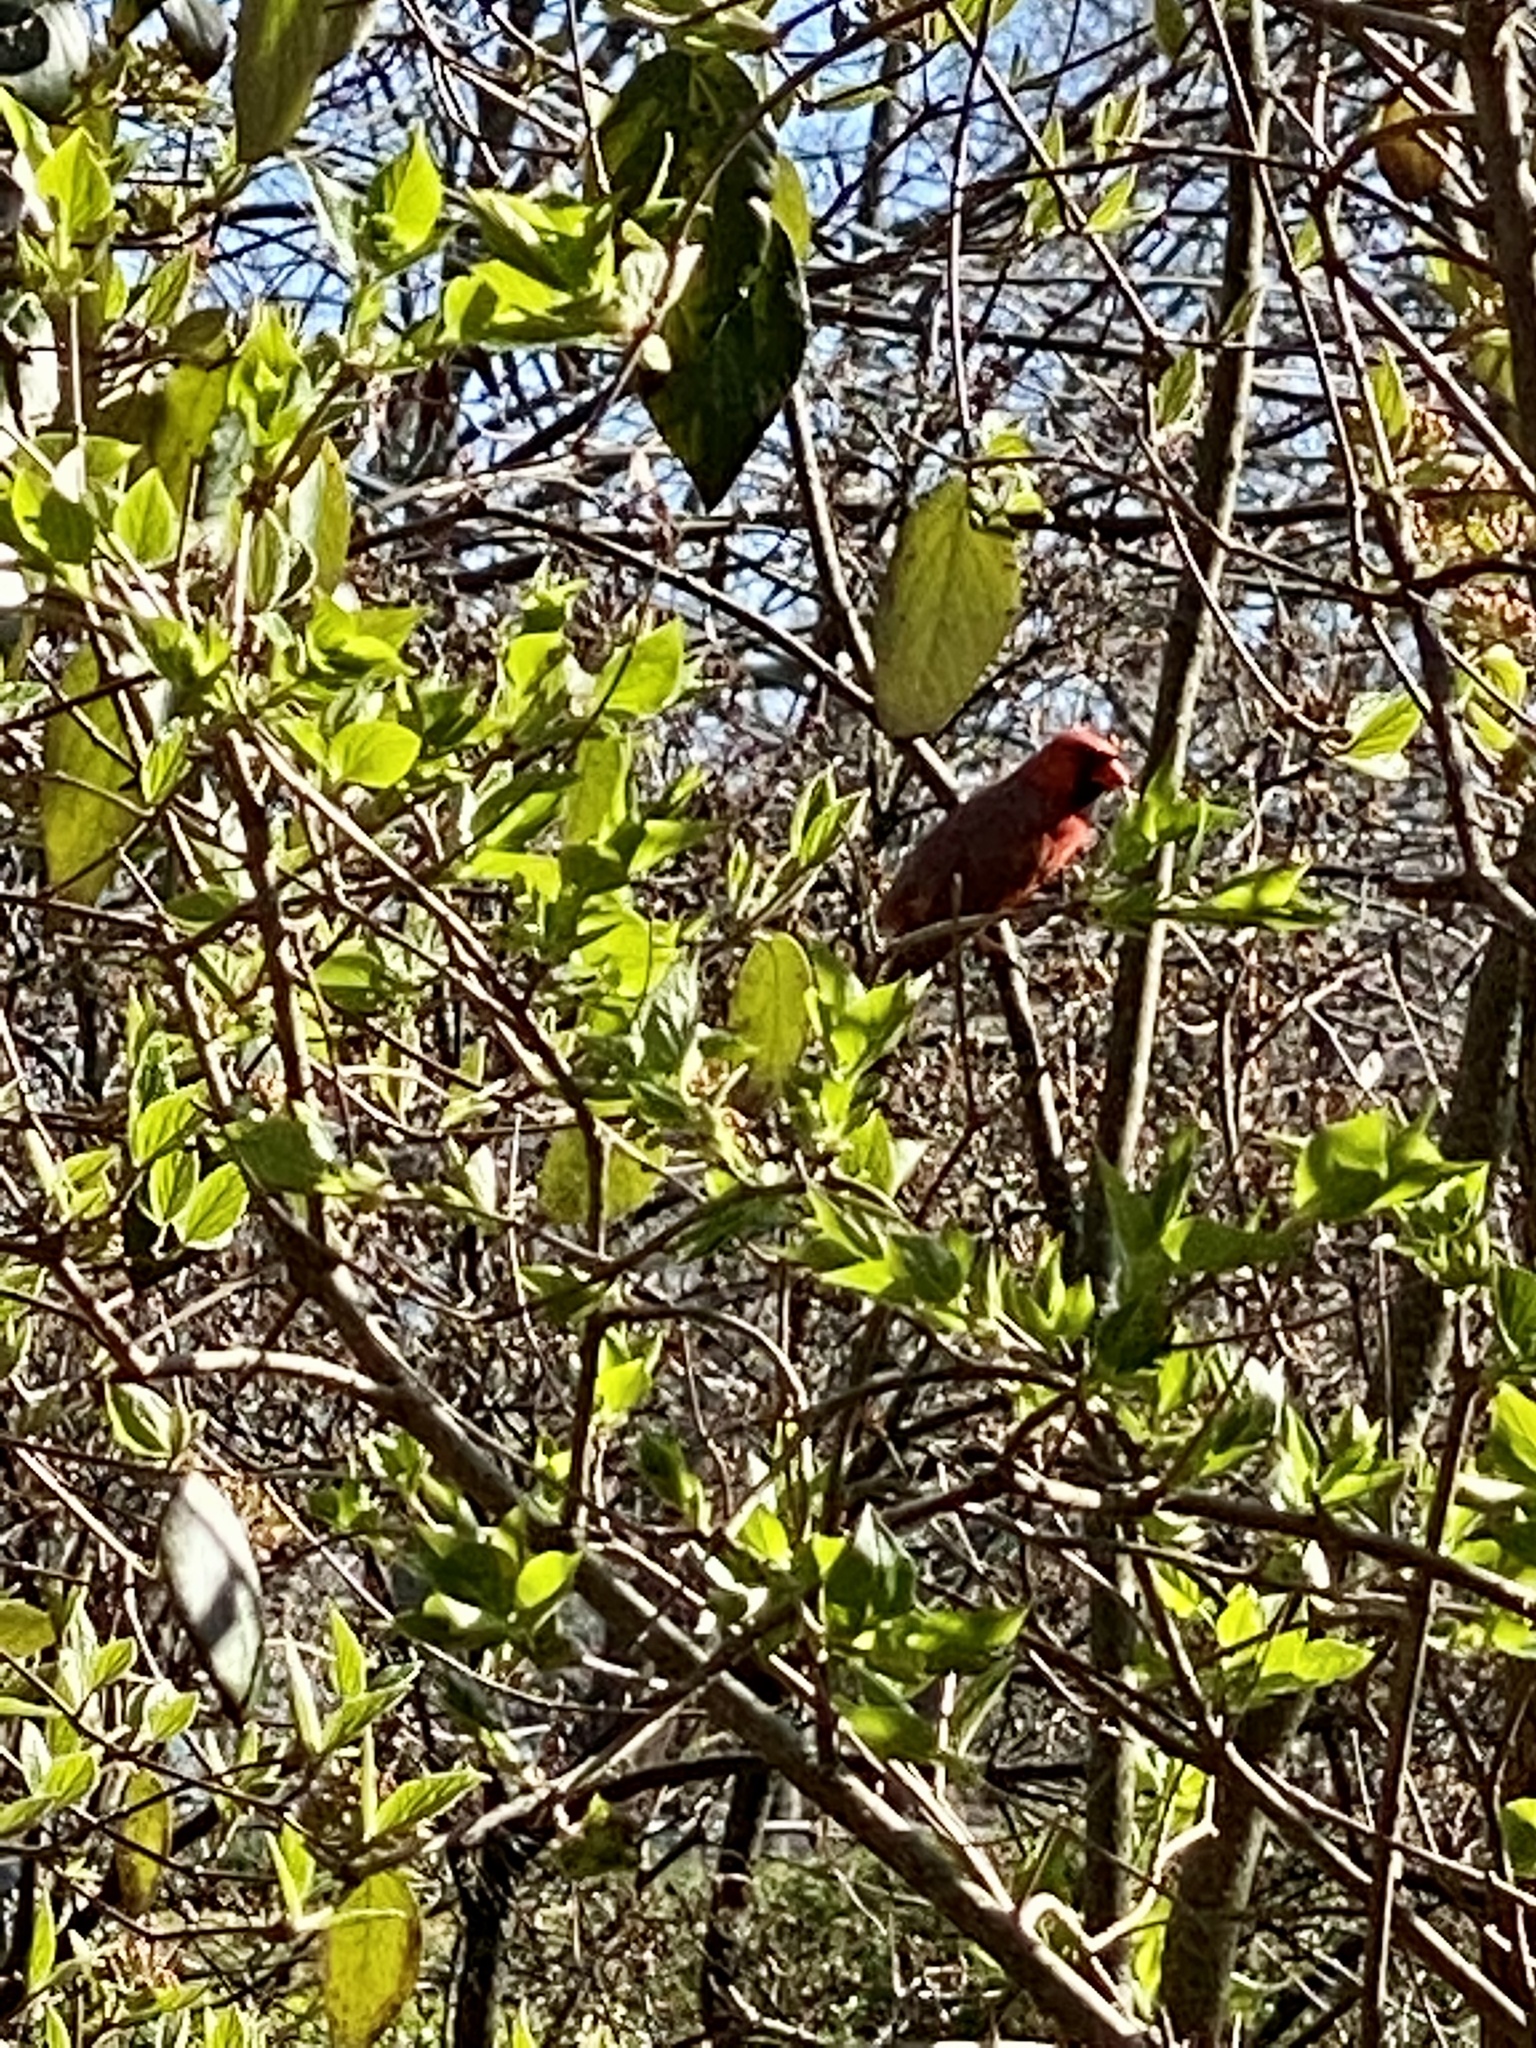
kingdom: Animalia
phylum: Chordata
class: Aves
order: Passeriformes
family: Cardinalidae
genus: Cardinalis
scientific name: Cardinalis cardinalis
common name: Northern cardinal
